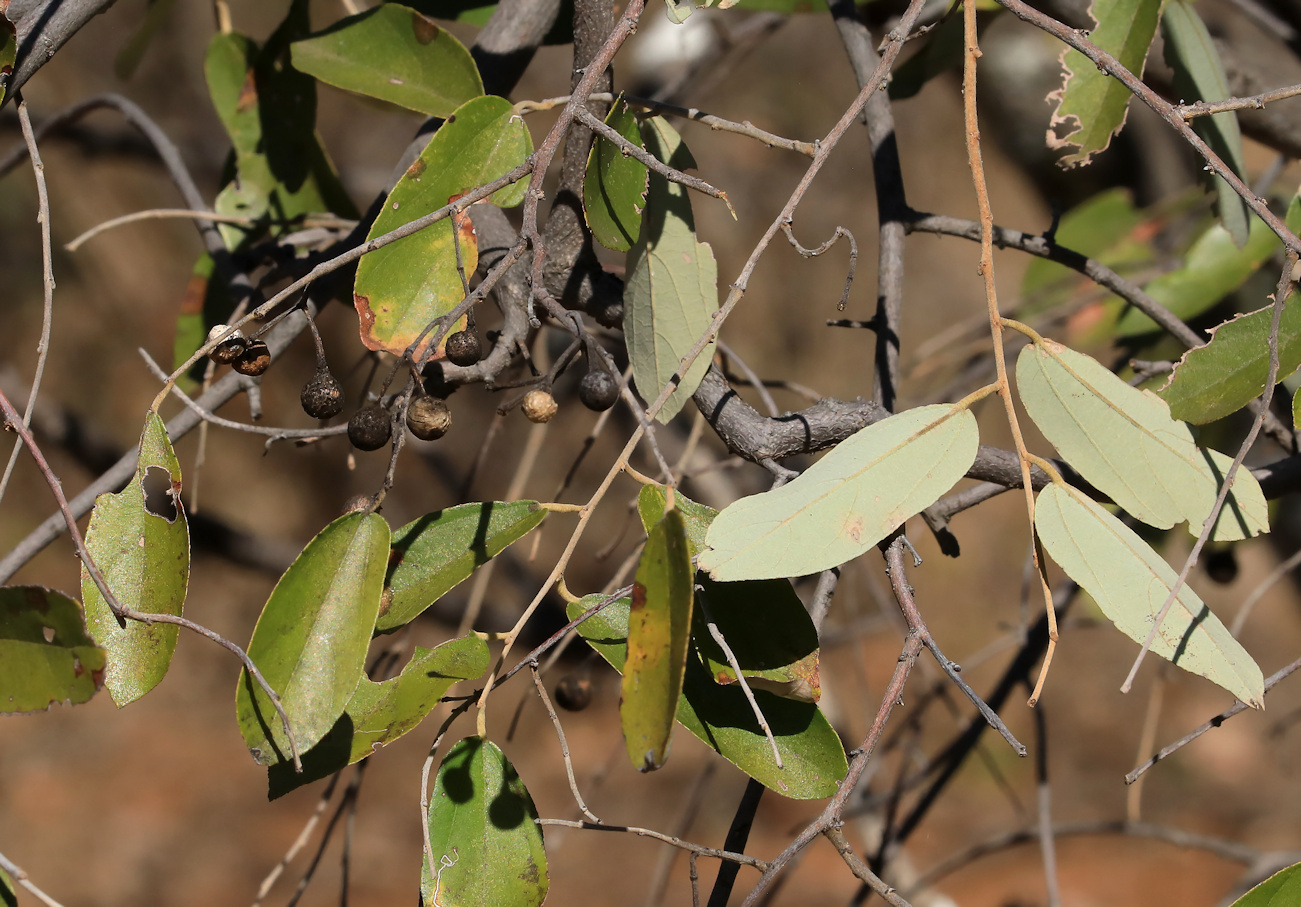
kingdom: Plantae
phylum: Tracheophyta
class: Magnoliopsida
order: Malvales
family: Malvaceae
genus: Grewia
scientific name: Grewia bicolor
